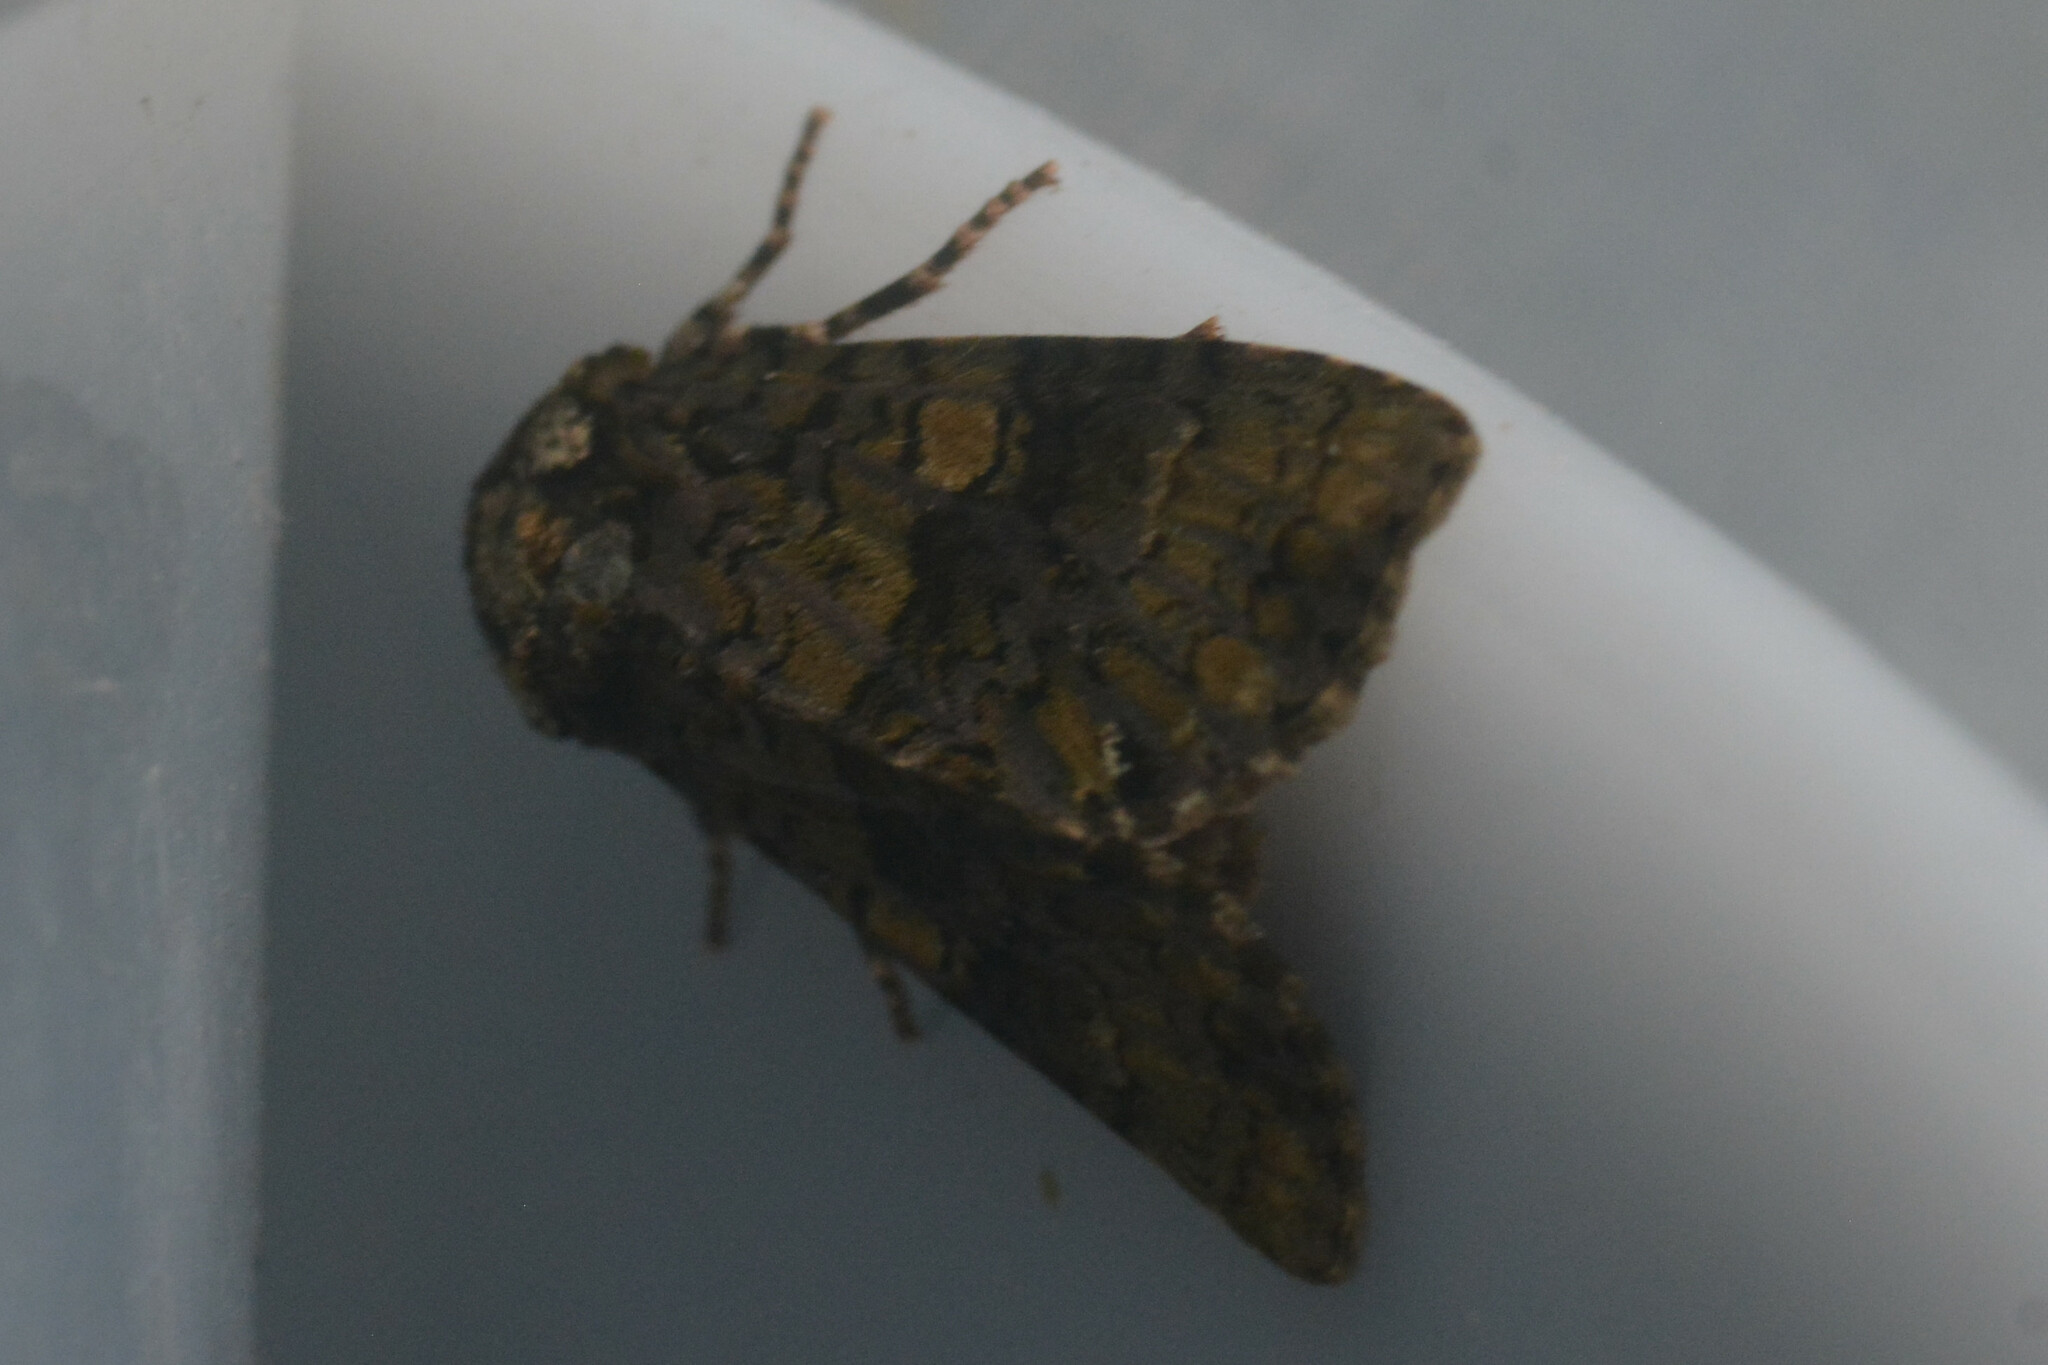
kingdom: Animalia
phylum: Arthropoda
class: Insecta
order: Lepidoptera
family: Noctuidae
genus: Craniophora
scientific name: Craniophora ligustri
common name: Coronet
